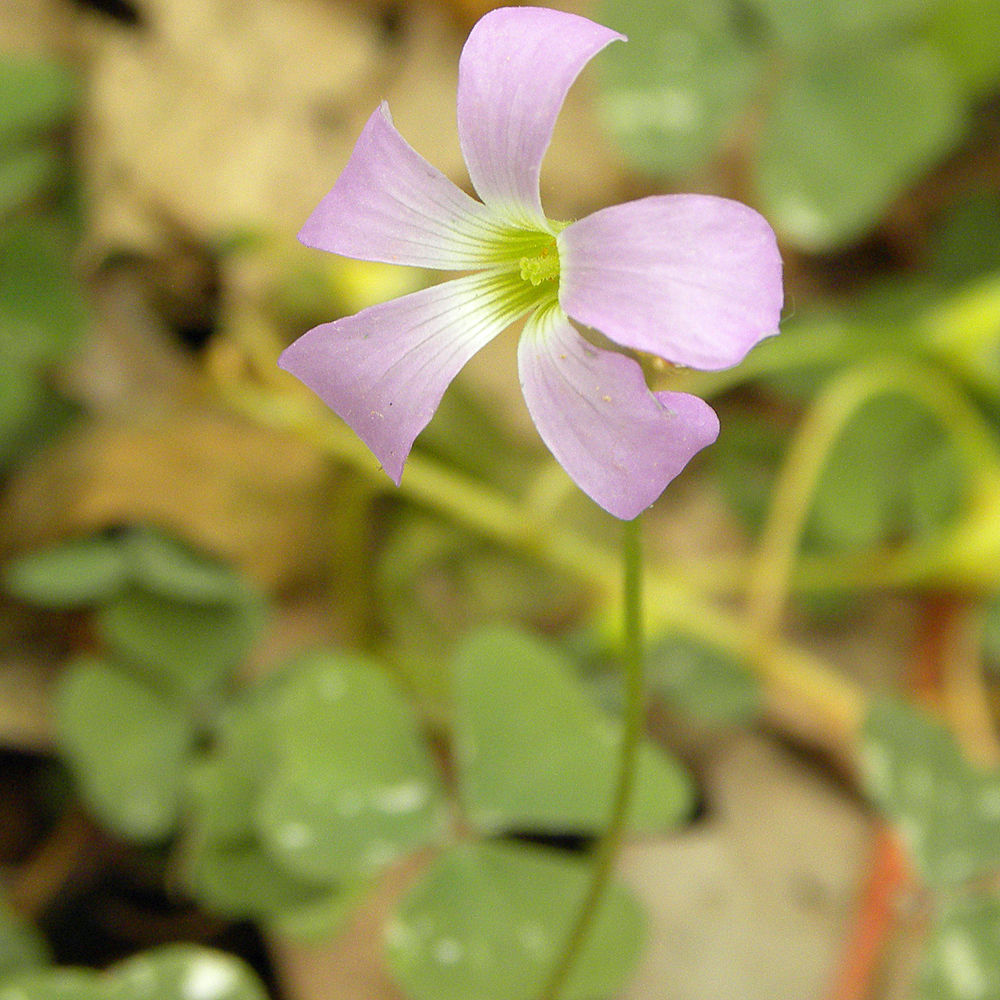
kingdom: Plantae
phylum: Tracheophyta
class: Magnoliopsida
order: Oxalidales
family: Oxalidaceae
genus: Oxalis
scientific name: Oxalis violacea
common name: Violet wood-sorrel
